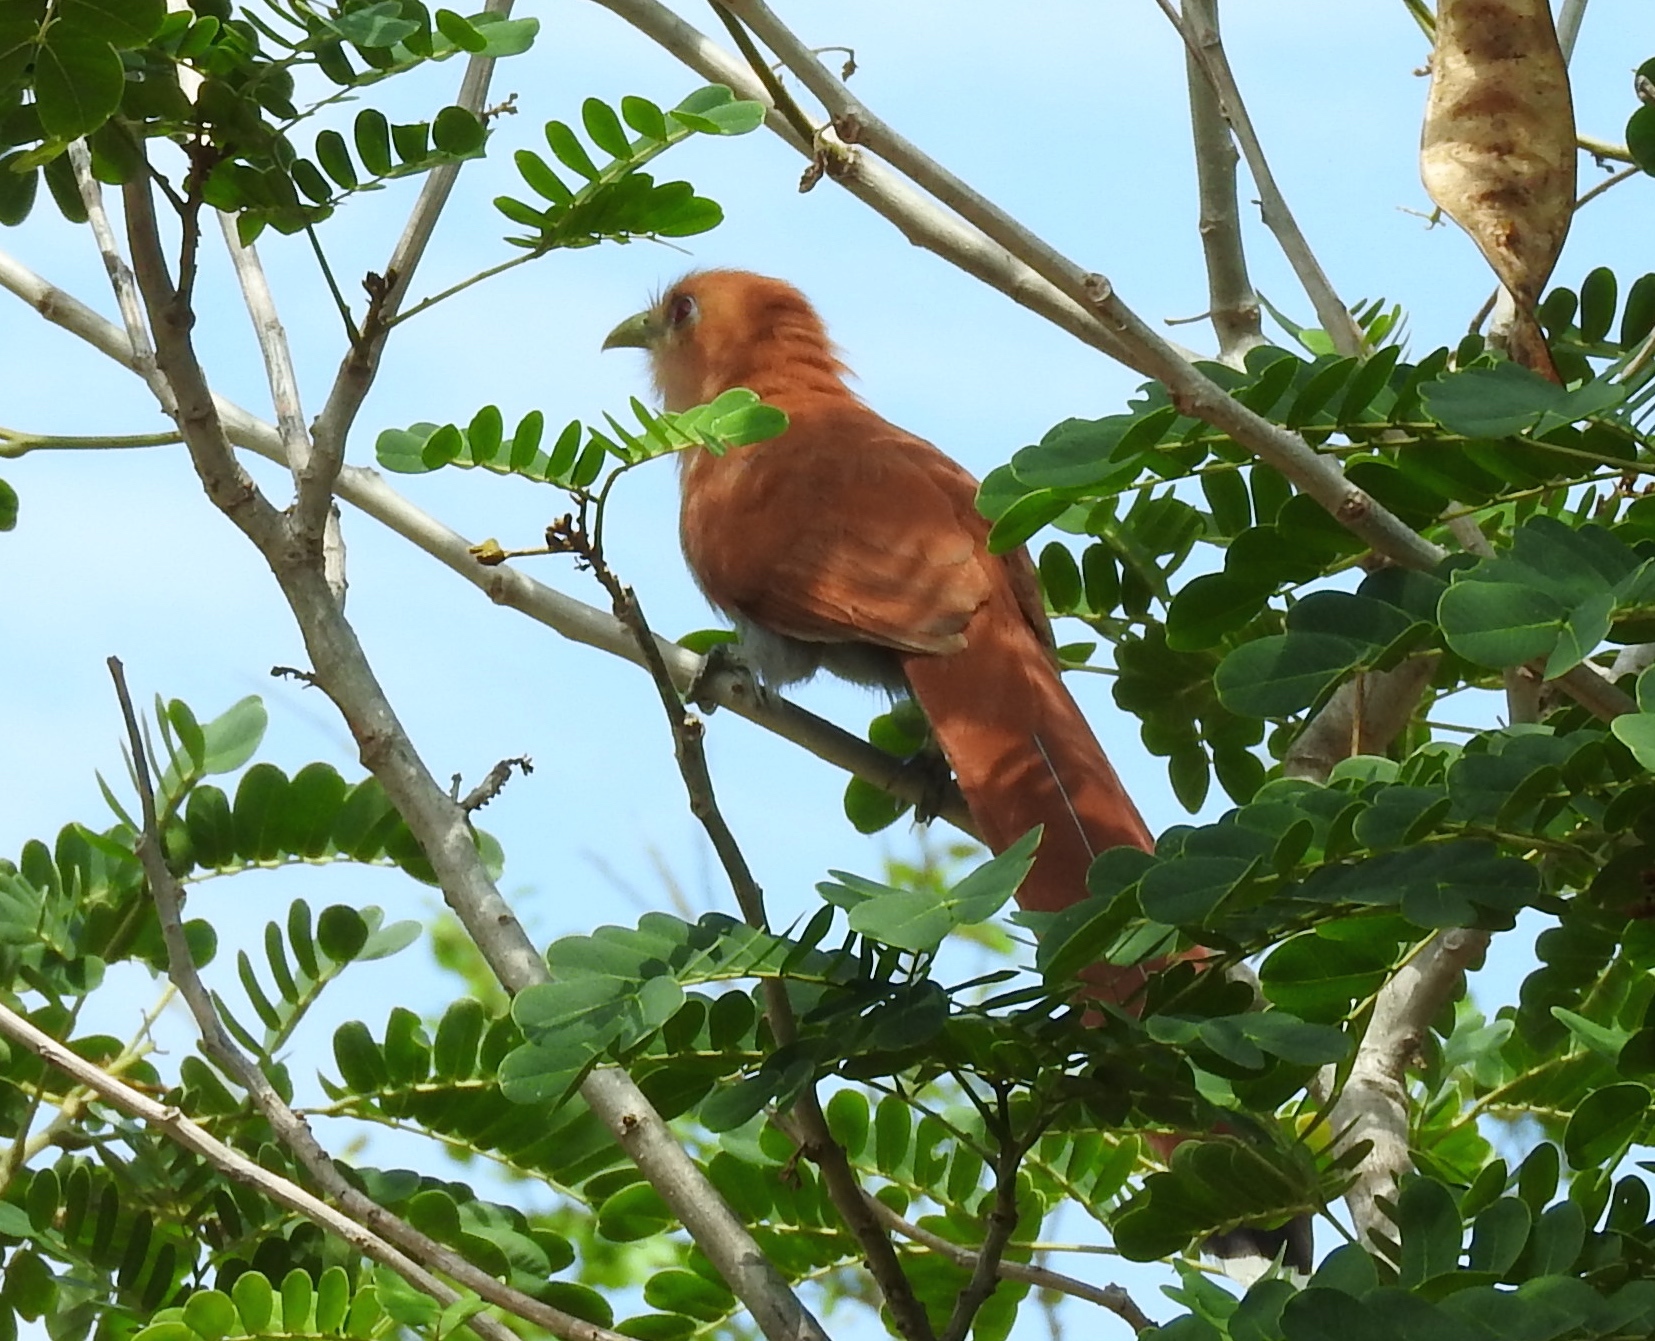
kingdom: Animalia
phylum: Chordata
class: Aves
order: Cuculiformes
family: Cuculidae
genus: Piaya
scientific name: Piaya cayana
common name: Squirrel cuckoo
